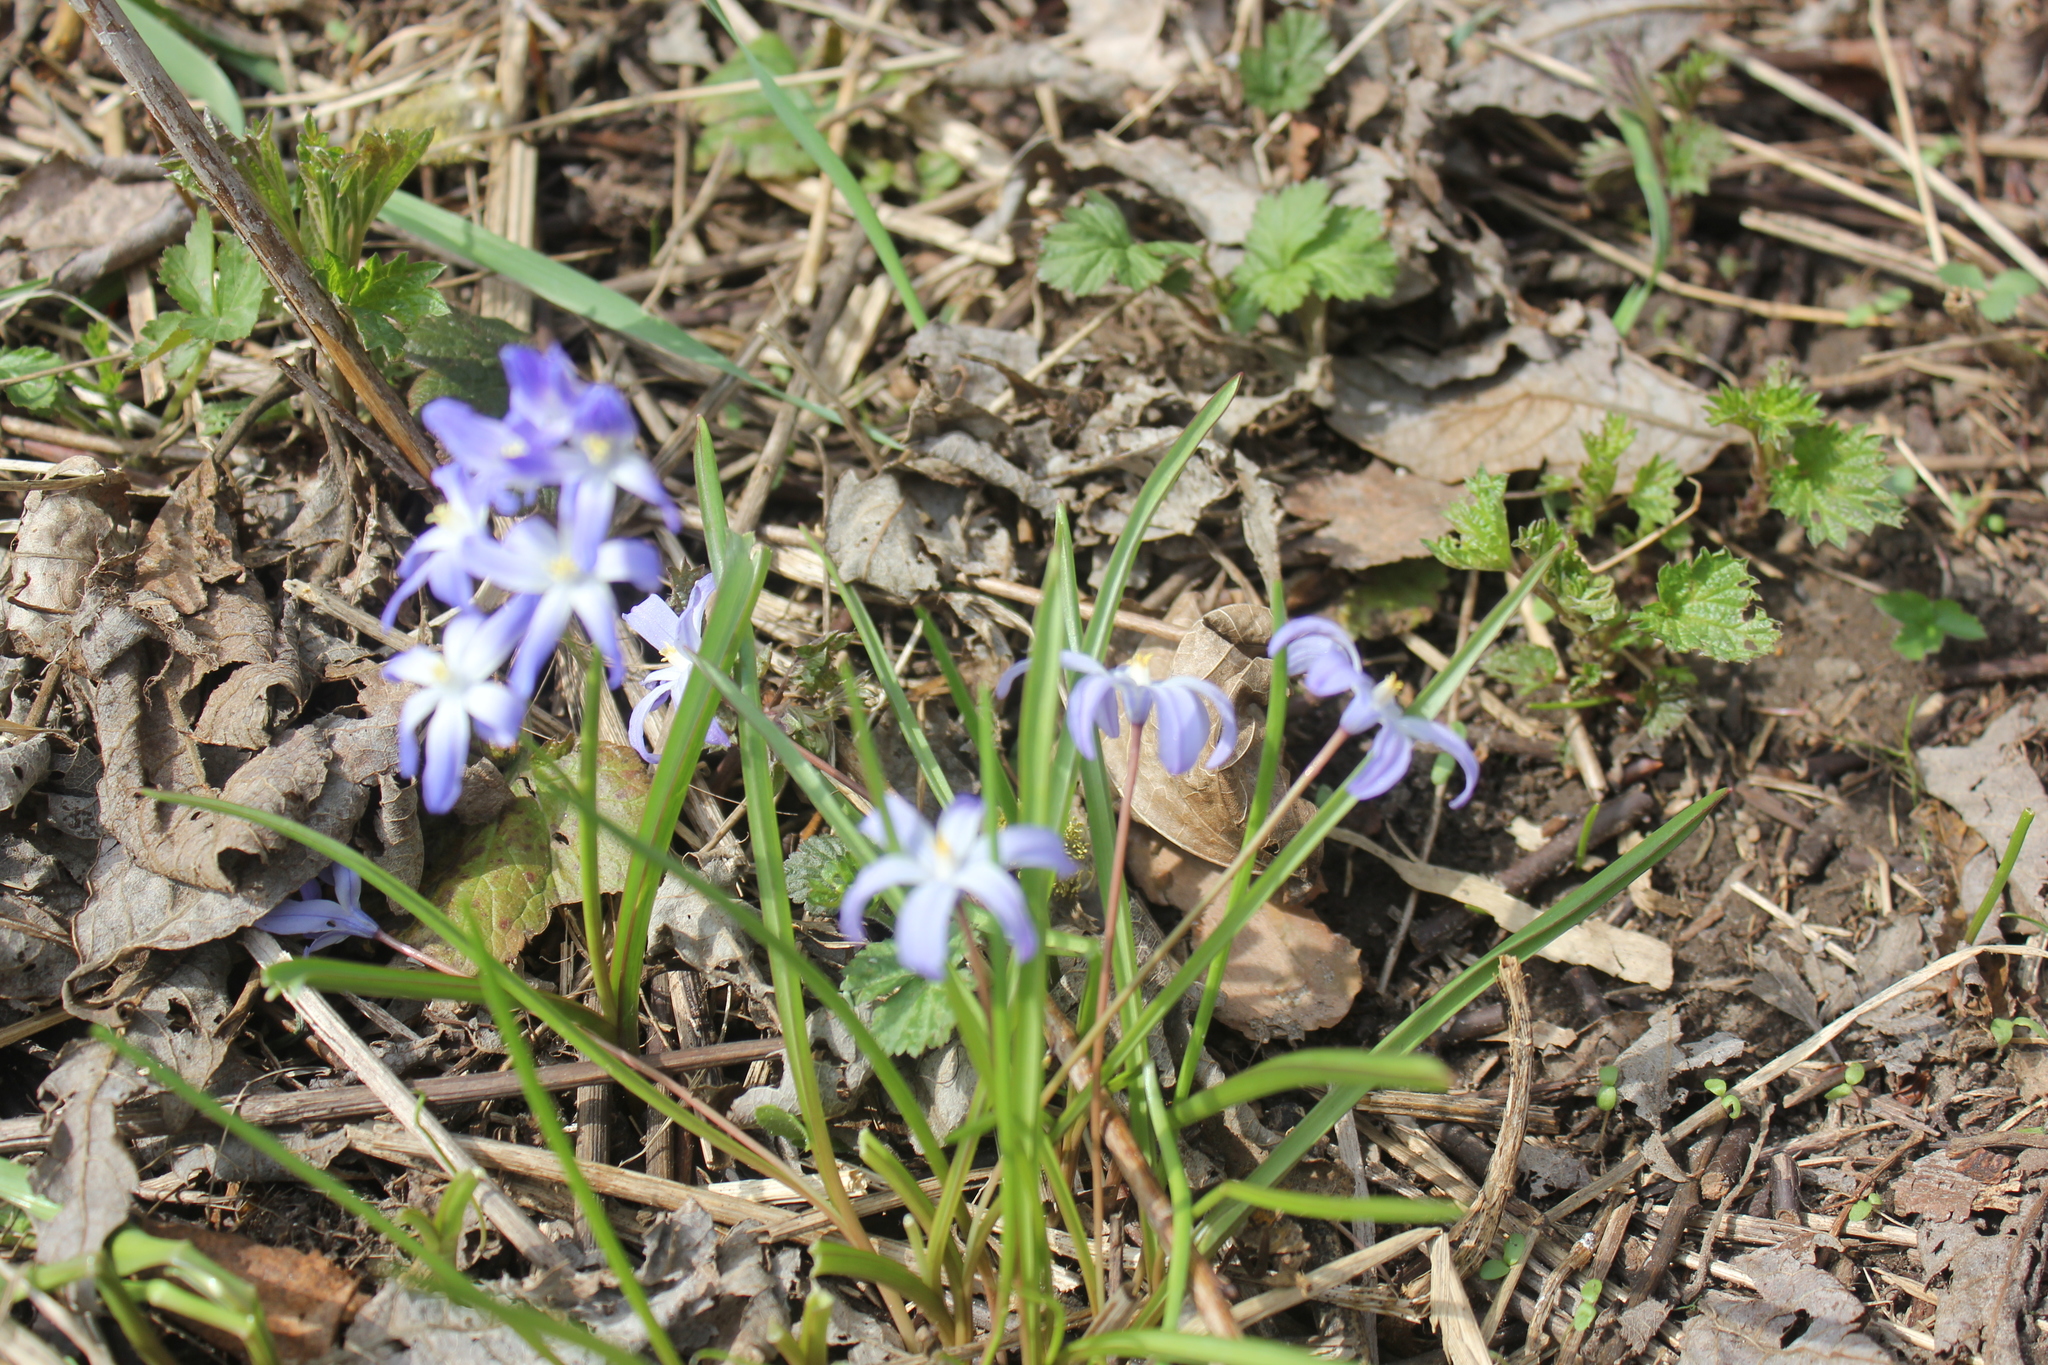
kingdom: Plantae
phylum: Tracheophyta
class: Liliopsida
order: Asparagales
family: Asparagaceae
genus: Scilla
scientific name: Scilla luciliae
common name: Boissier's glory-of-the-snow
